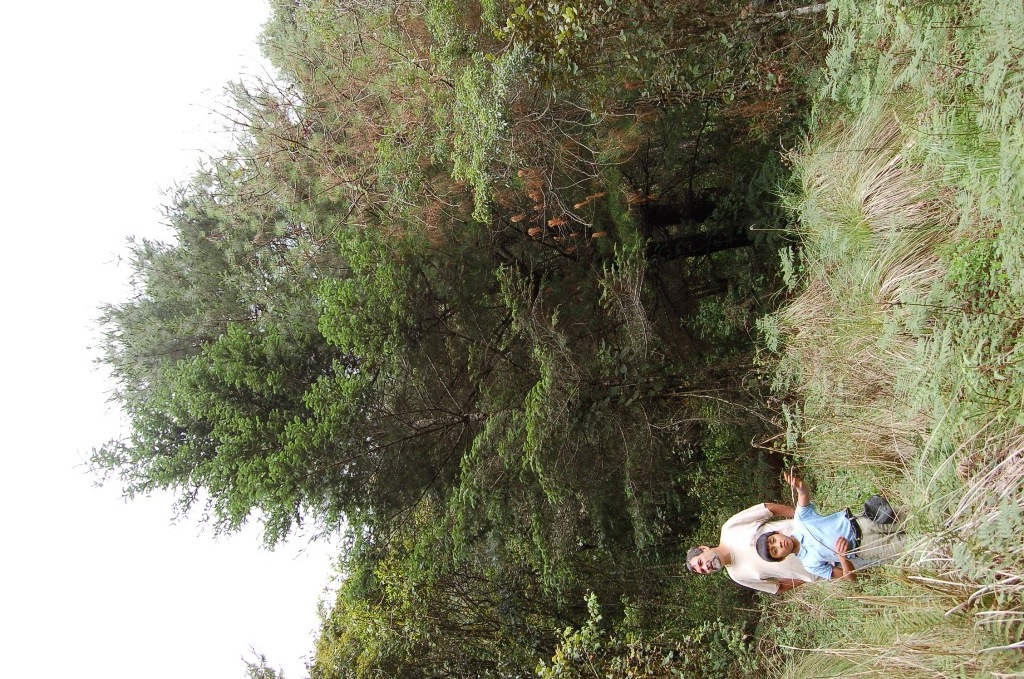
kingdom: Plantae
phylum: Tracheophyta
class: Pinopsida
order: Pinales
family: Pinaceae
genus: Abies
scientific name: Abies guatemalensis
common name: Guatemalan fir
